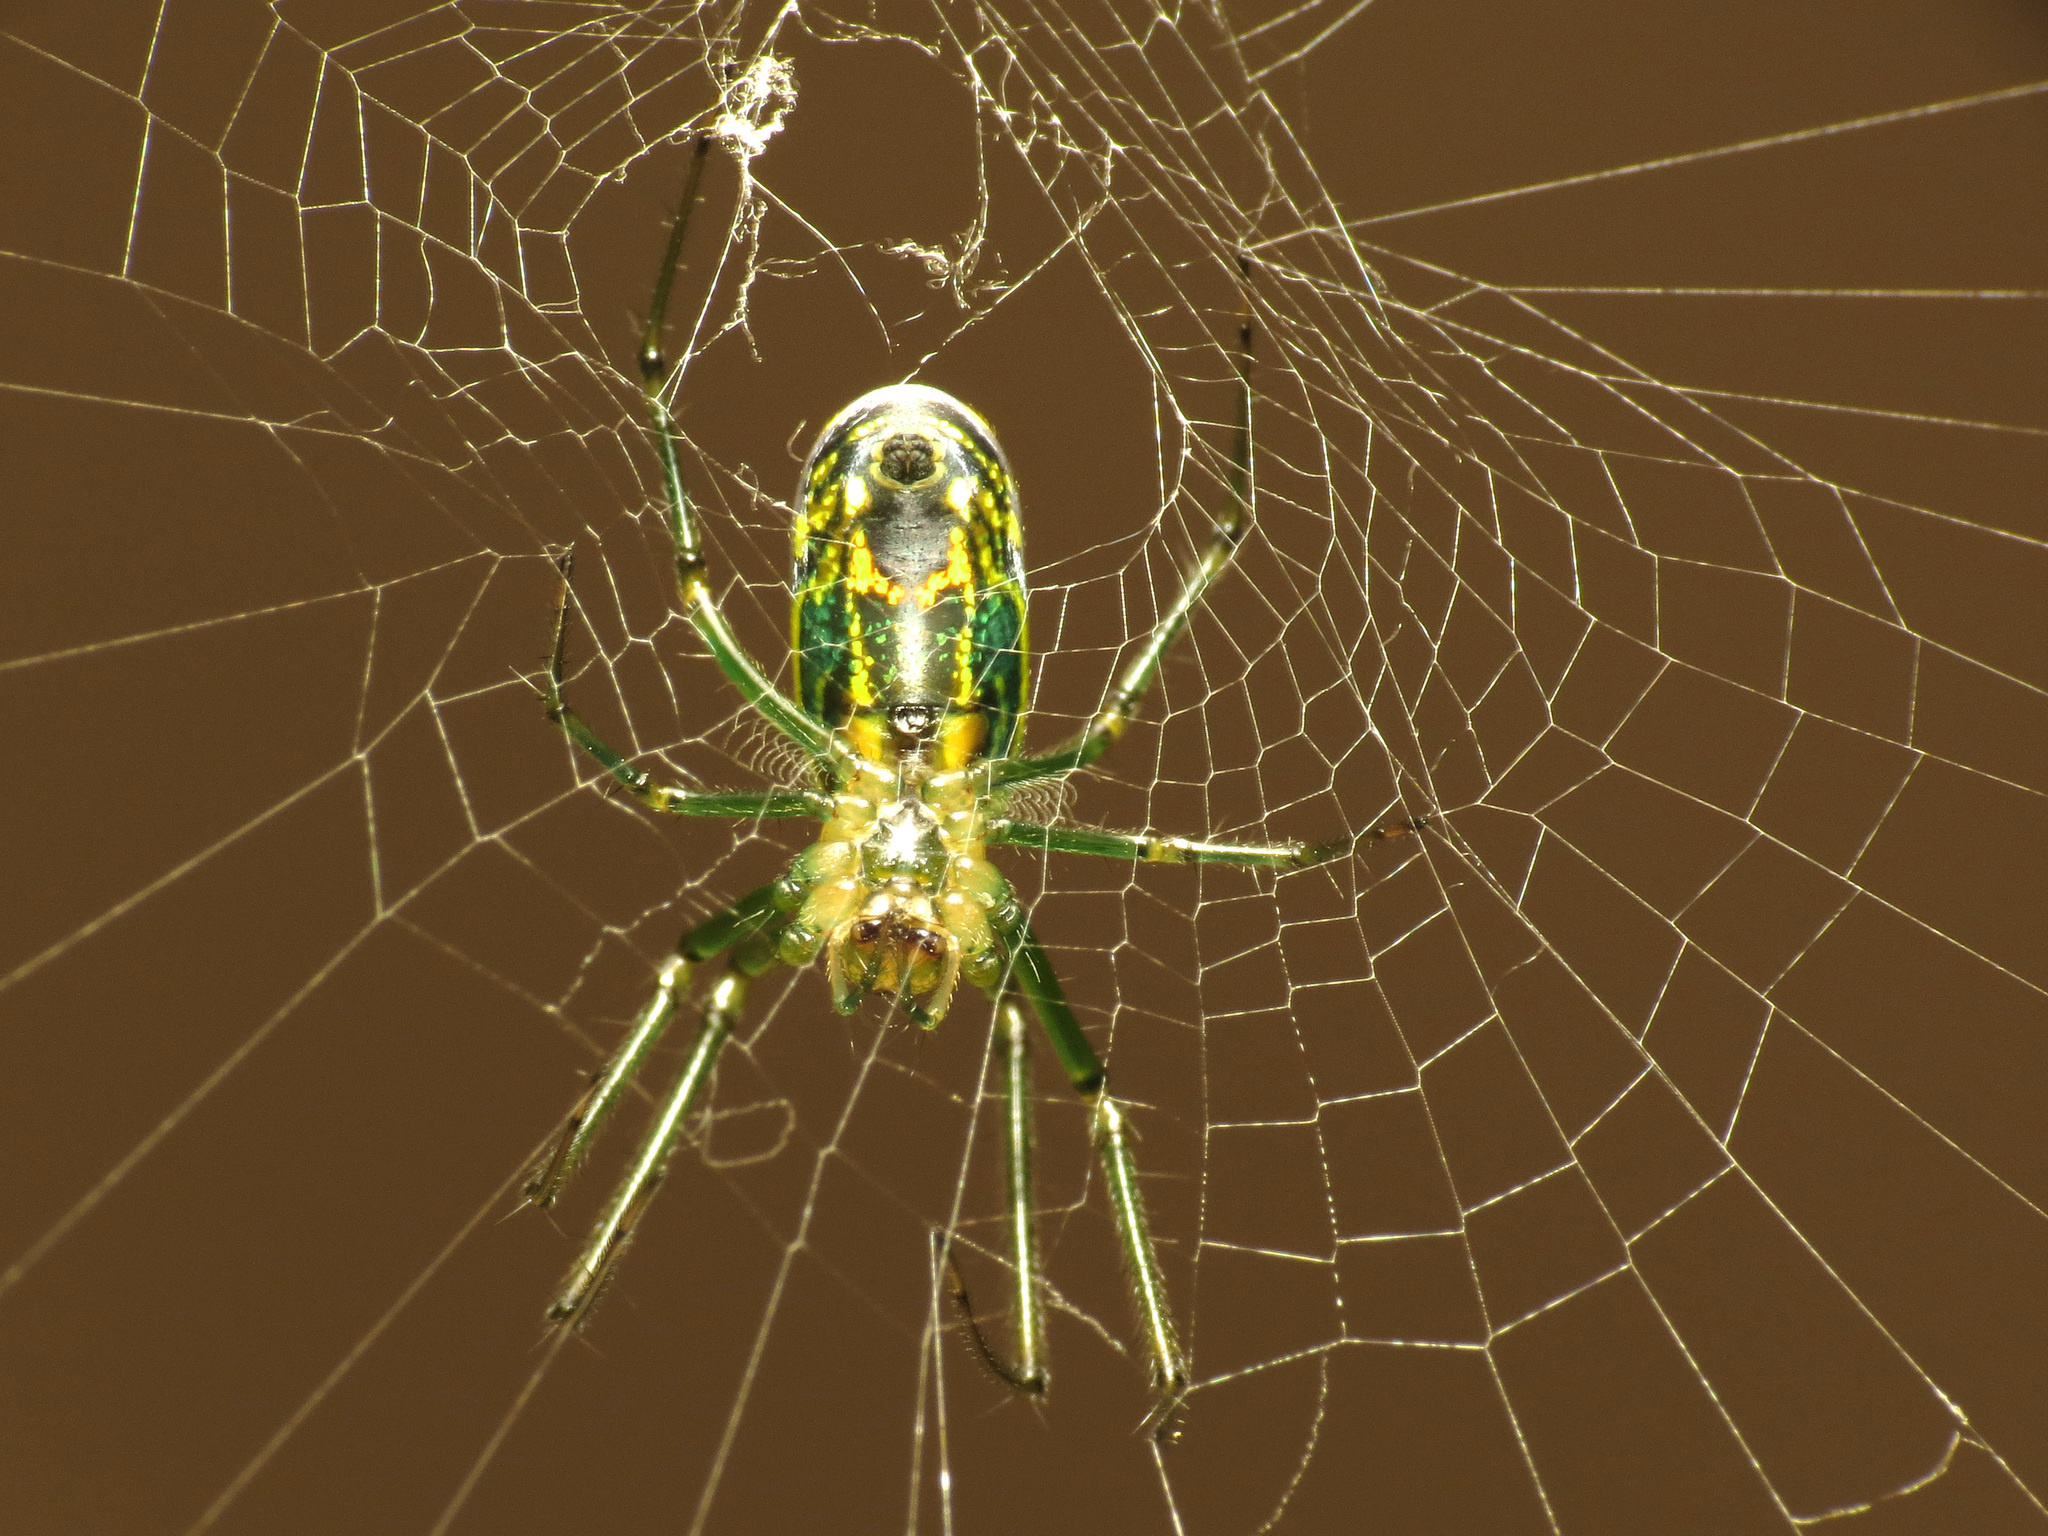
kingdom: Animalia
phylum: Arthropoda
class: Arachnida
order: Araneae
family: Tetragnathidae
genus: Leucauge
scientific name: Leucauge venusta
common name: Longjawed orb weavers
